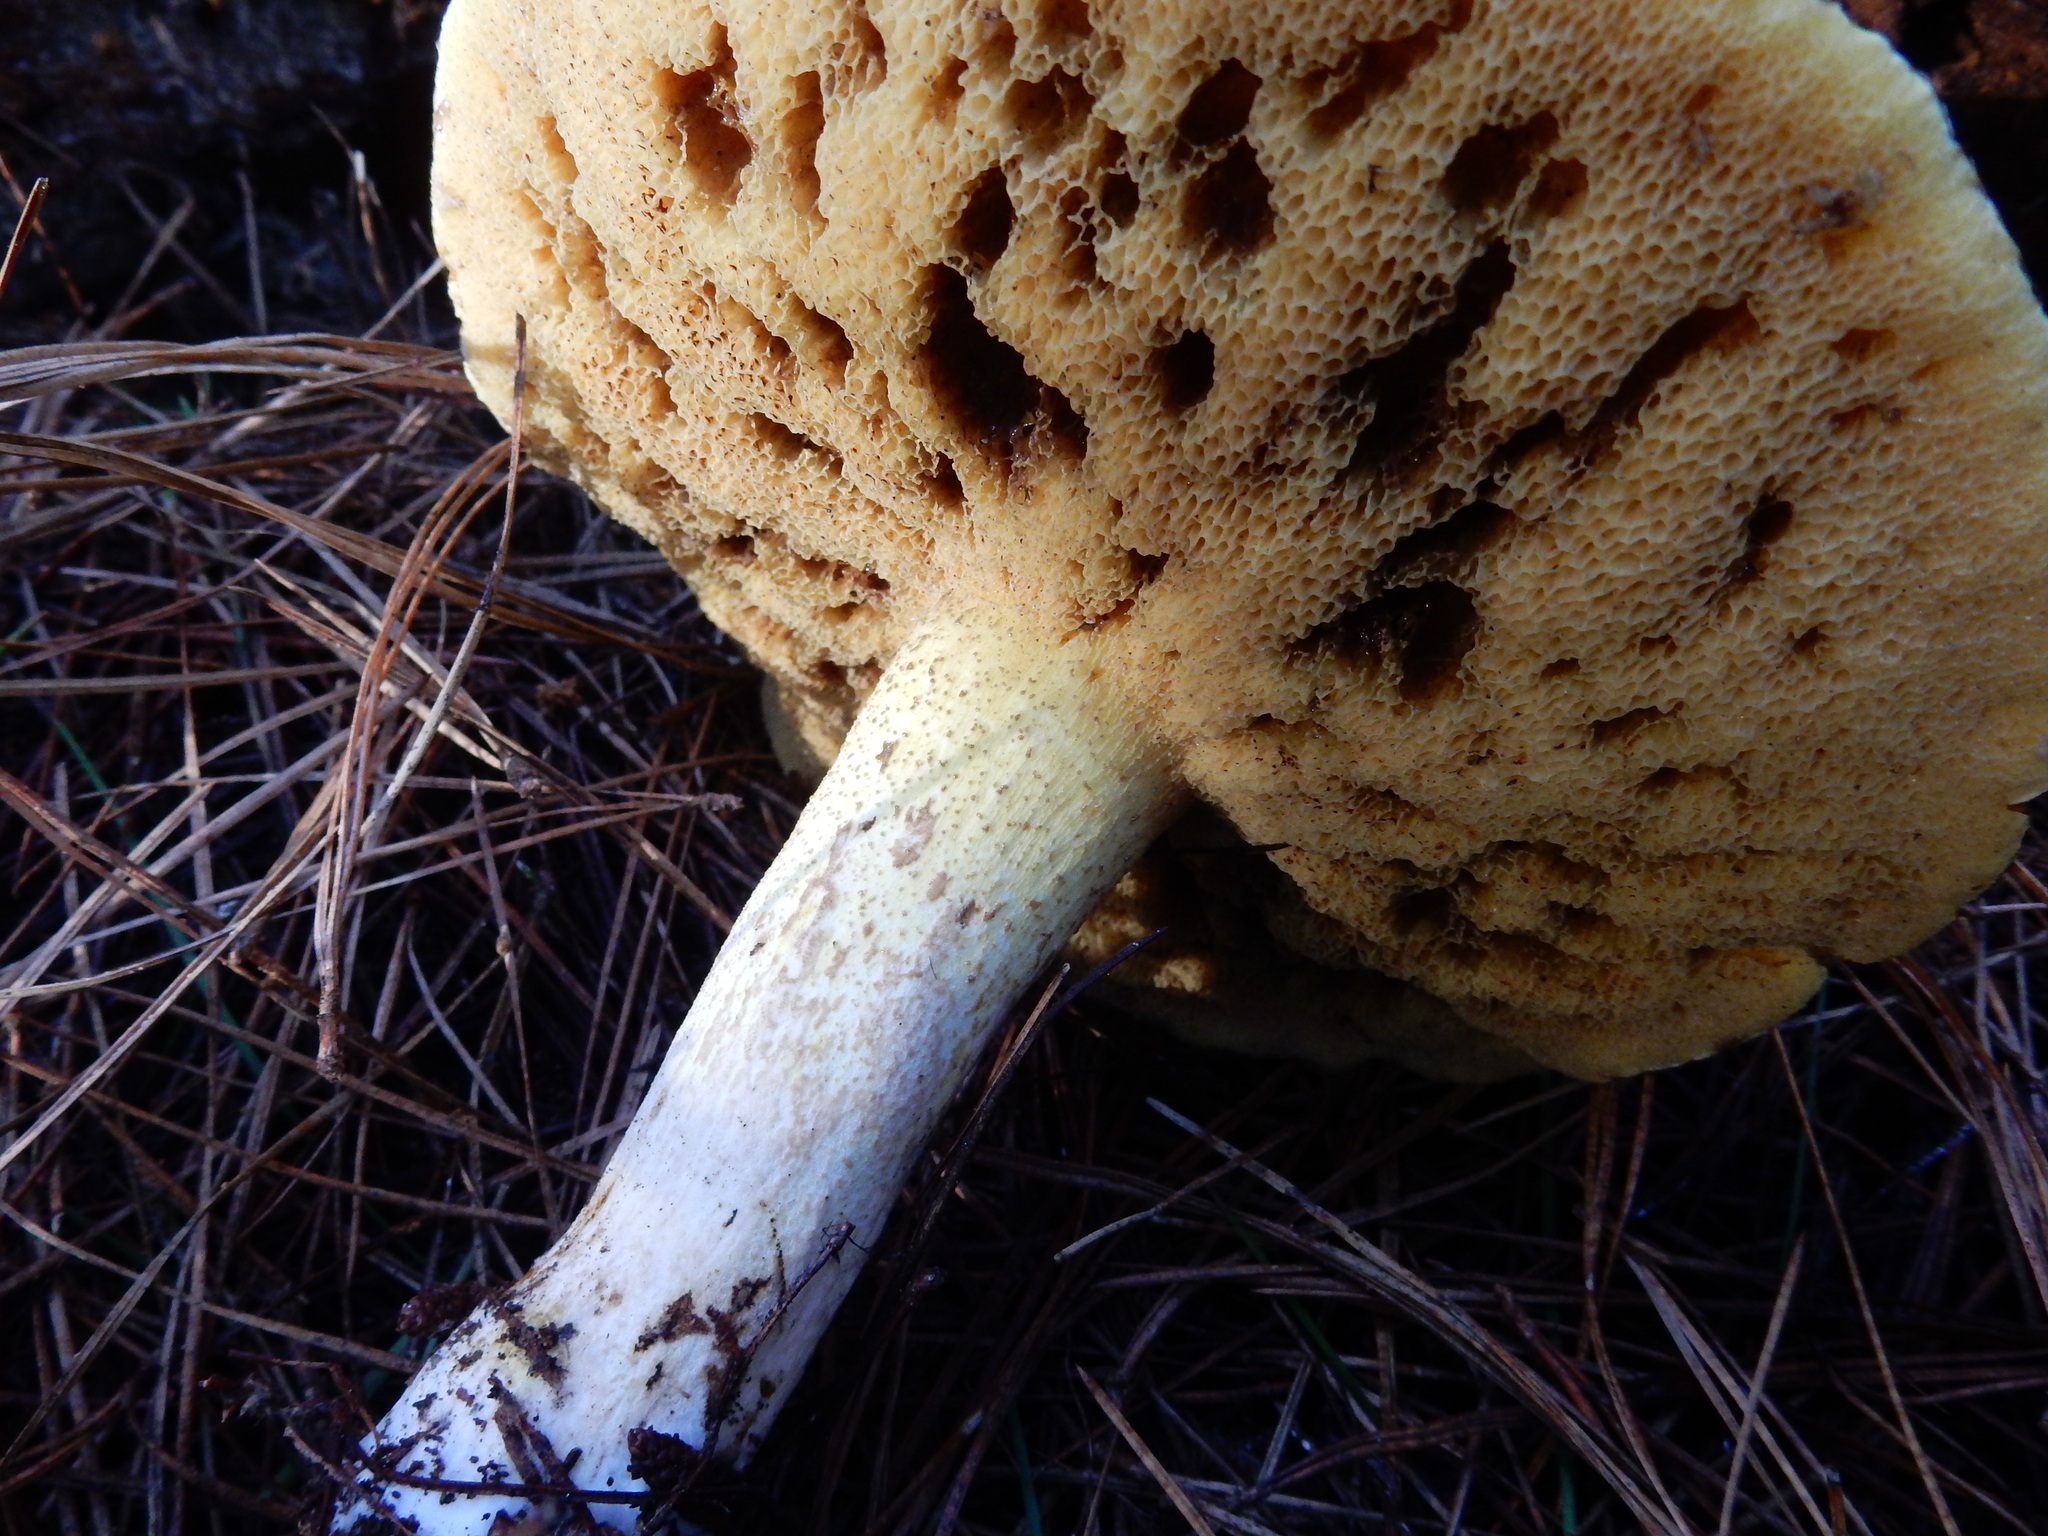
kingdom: Fungi
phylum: Basidiomycota
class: Agaricomycetes
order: Boletales
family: Suillaceae
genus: Suillus
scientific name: Suillus granulatus
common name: Weeping bolete
